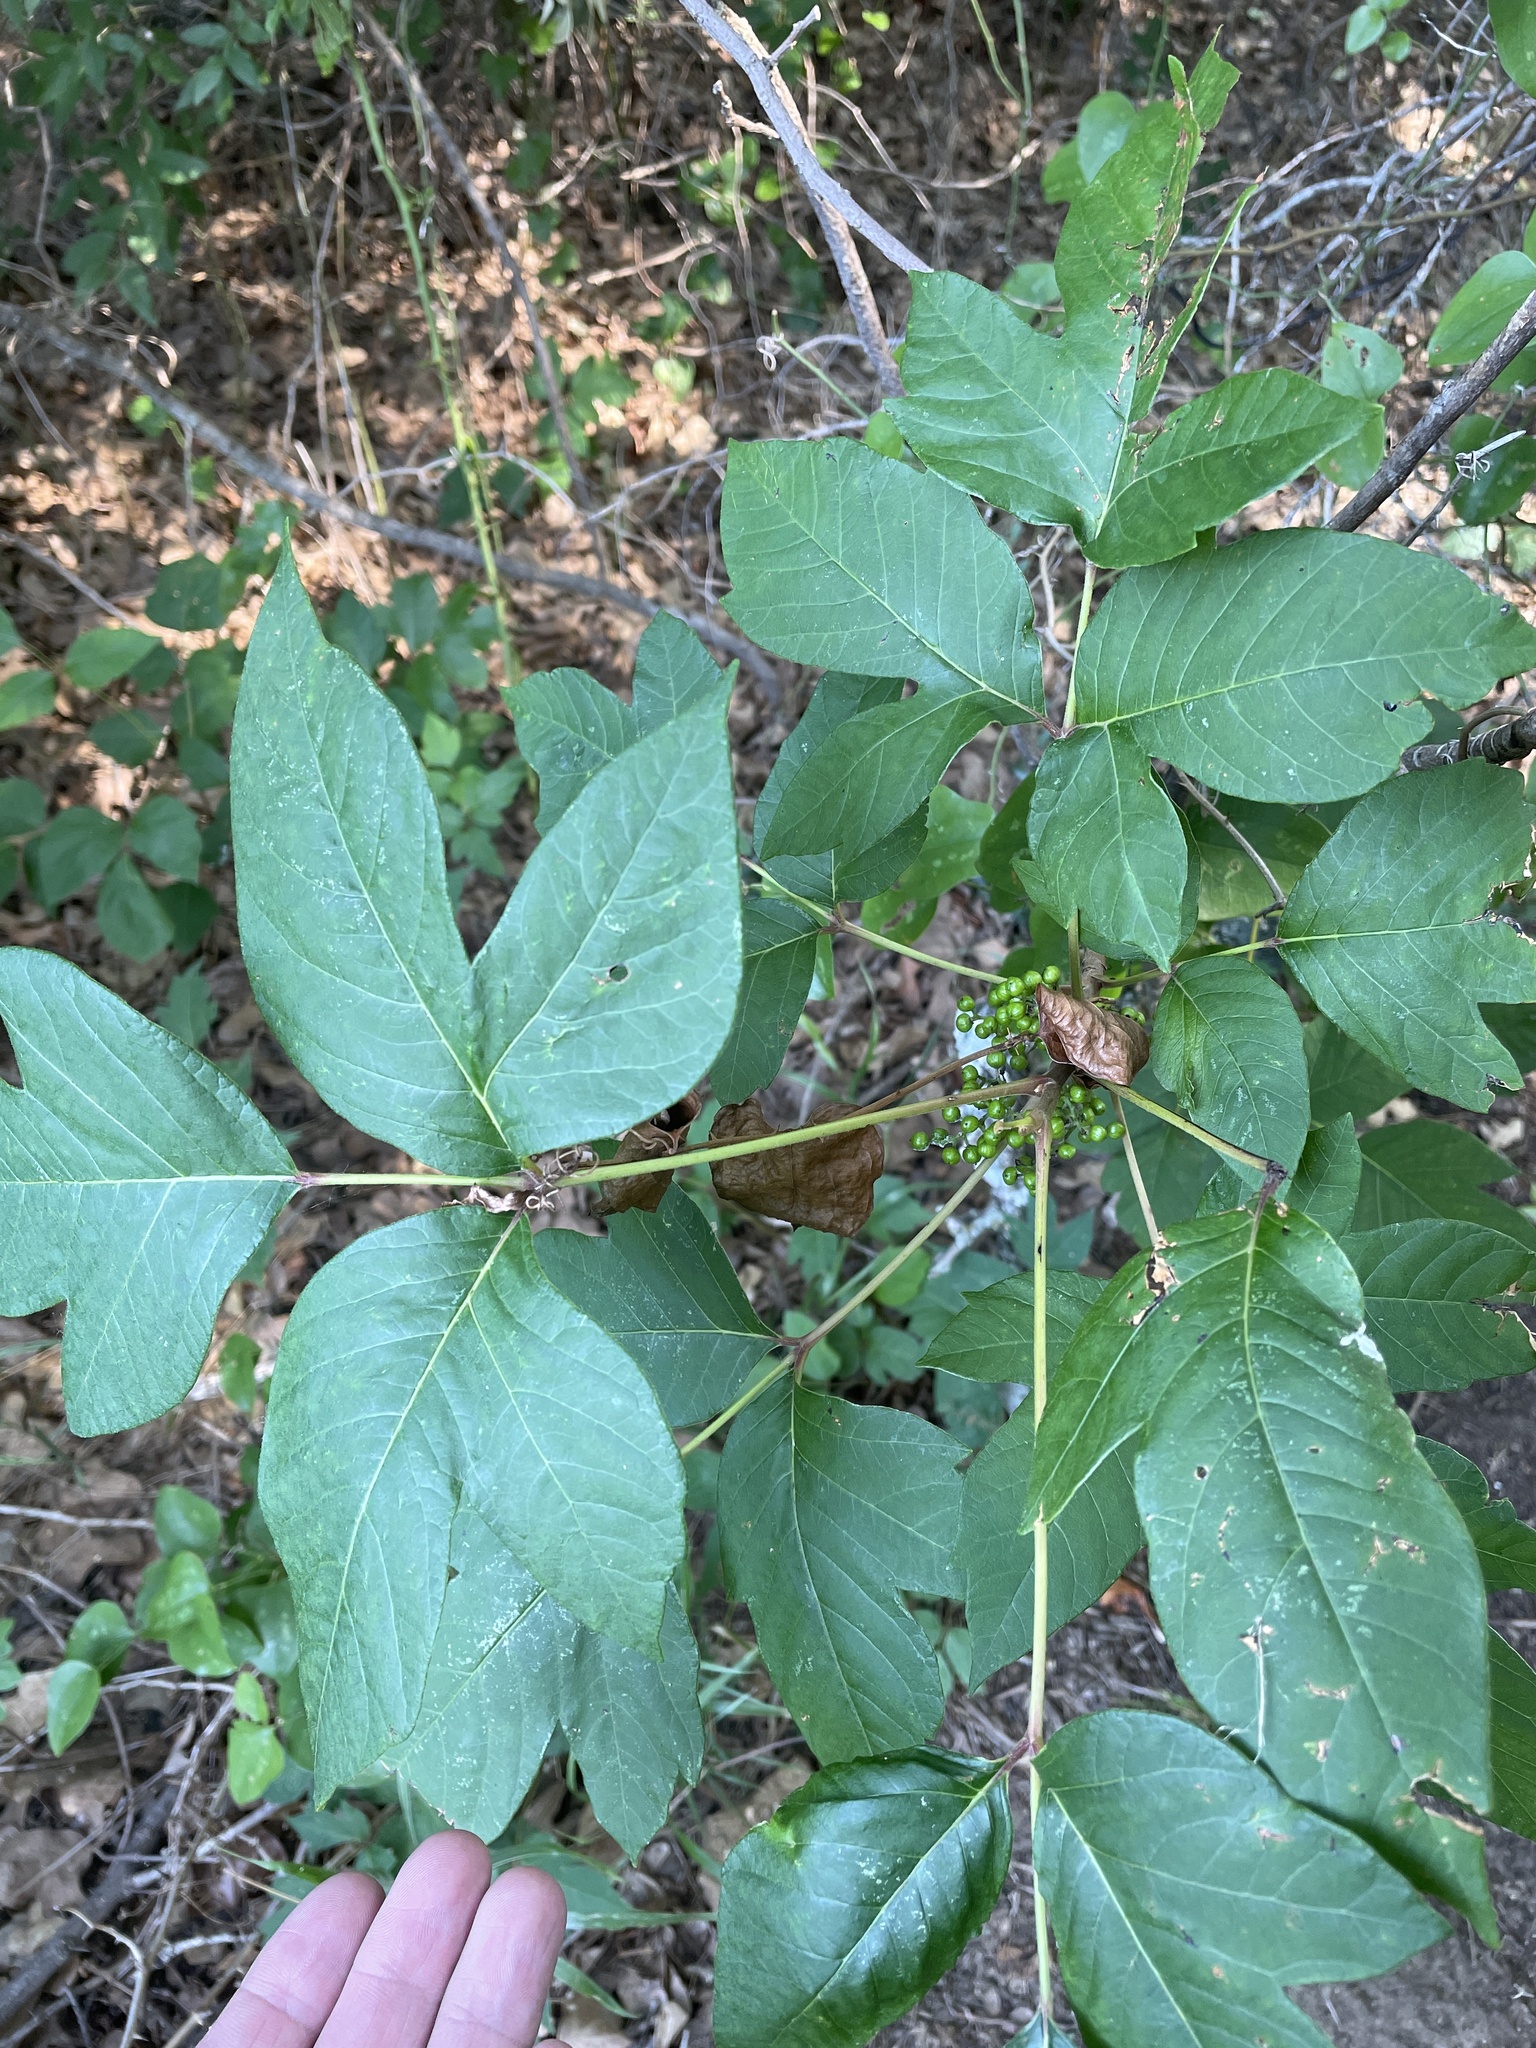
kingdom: Plantae
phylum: Tracheophyta
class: Magnoliopsida
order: Sapindales
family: Anacardiaceae
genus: Toxicodendron
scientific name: Toxicodendron radicans
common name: Poison ivy
